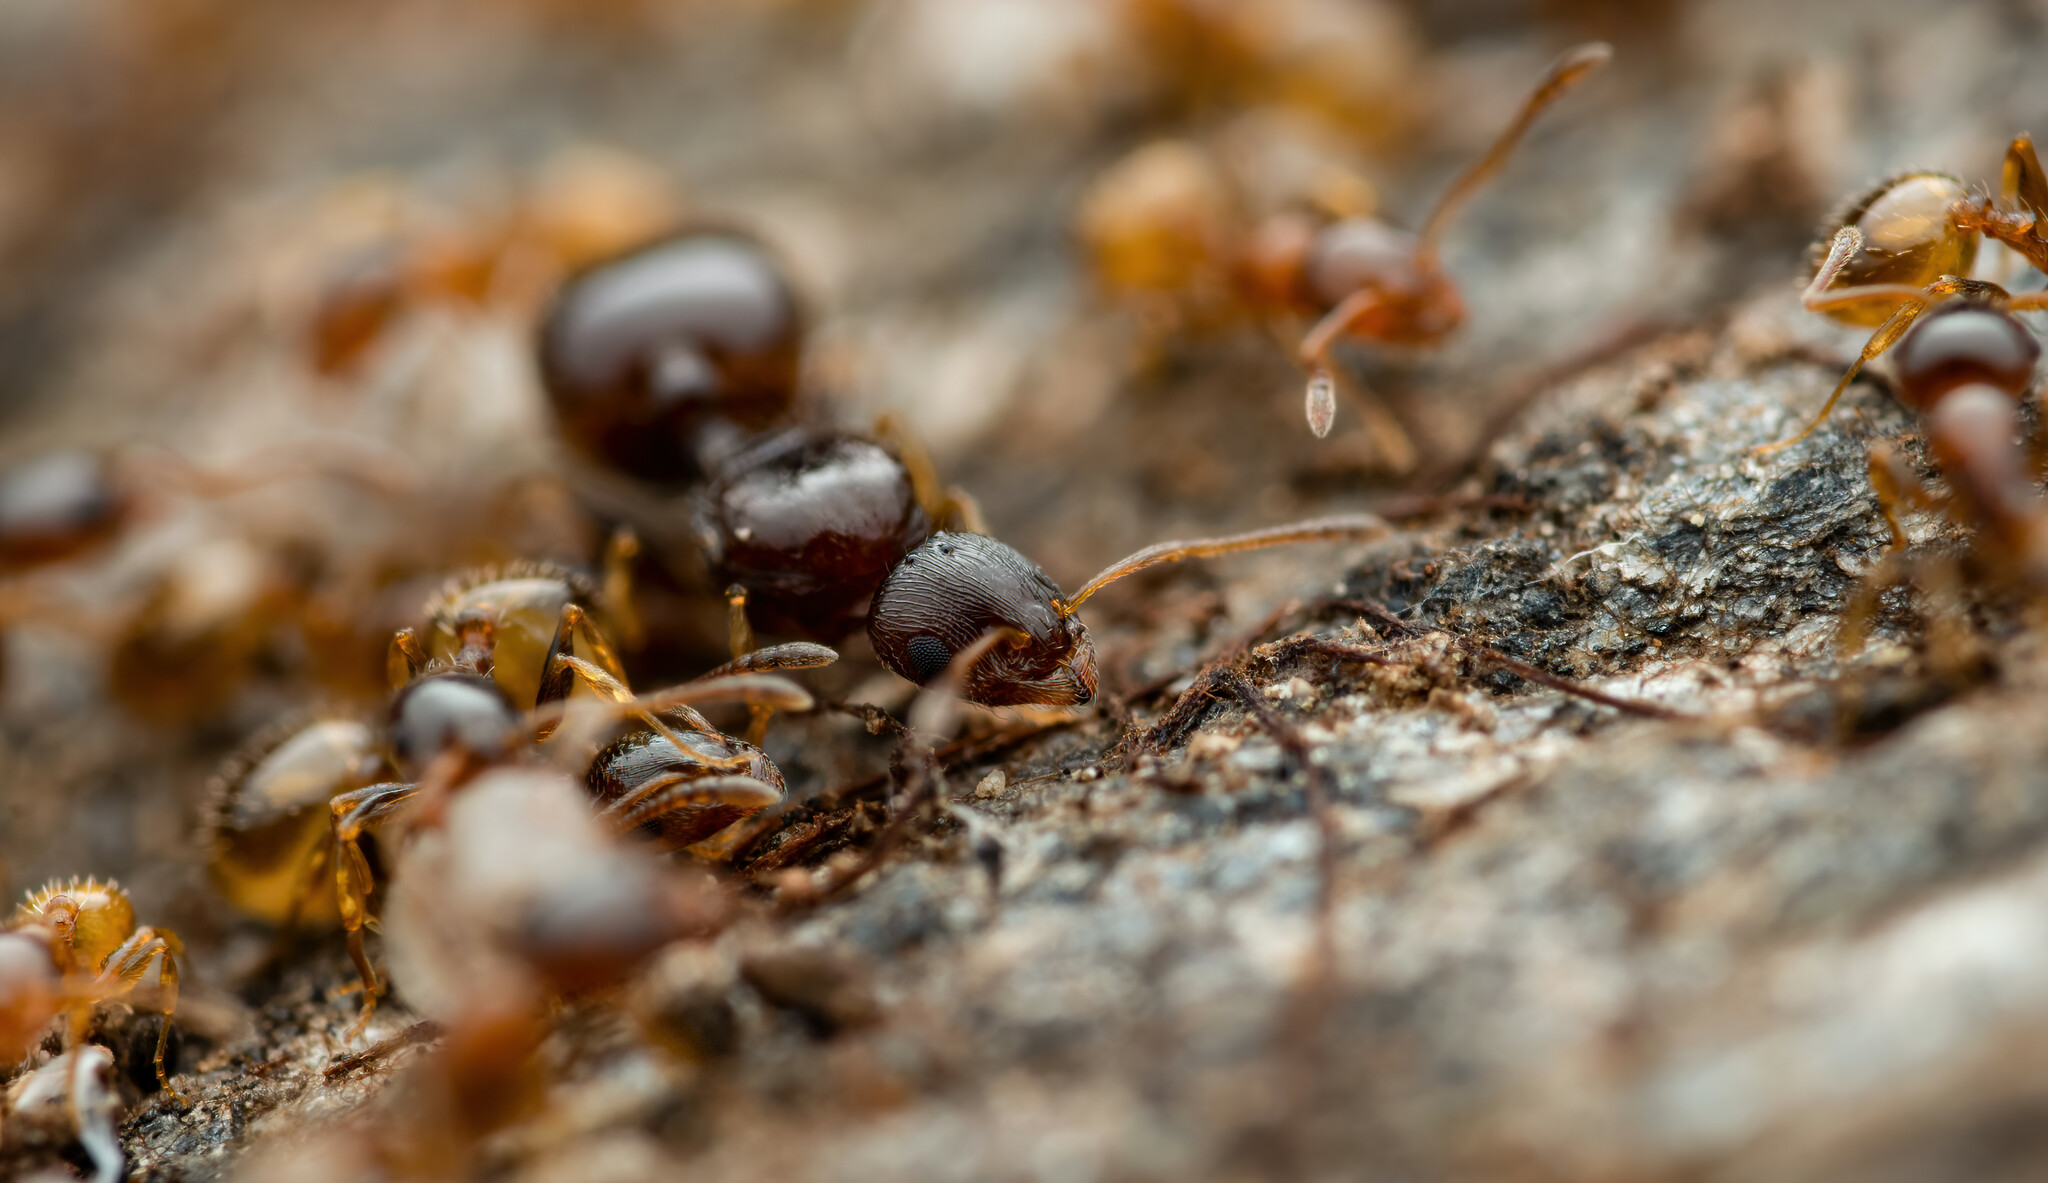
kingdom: Animalia
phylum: Arthropoda
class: Insecta
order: Hymenoptera
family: Formicidae
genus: Temnothorax
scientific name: Temnothorax
